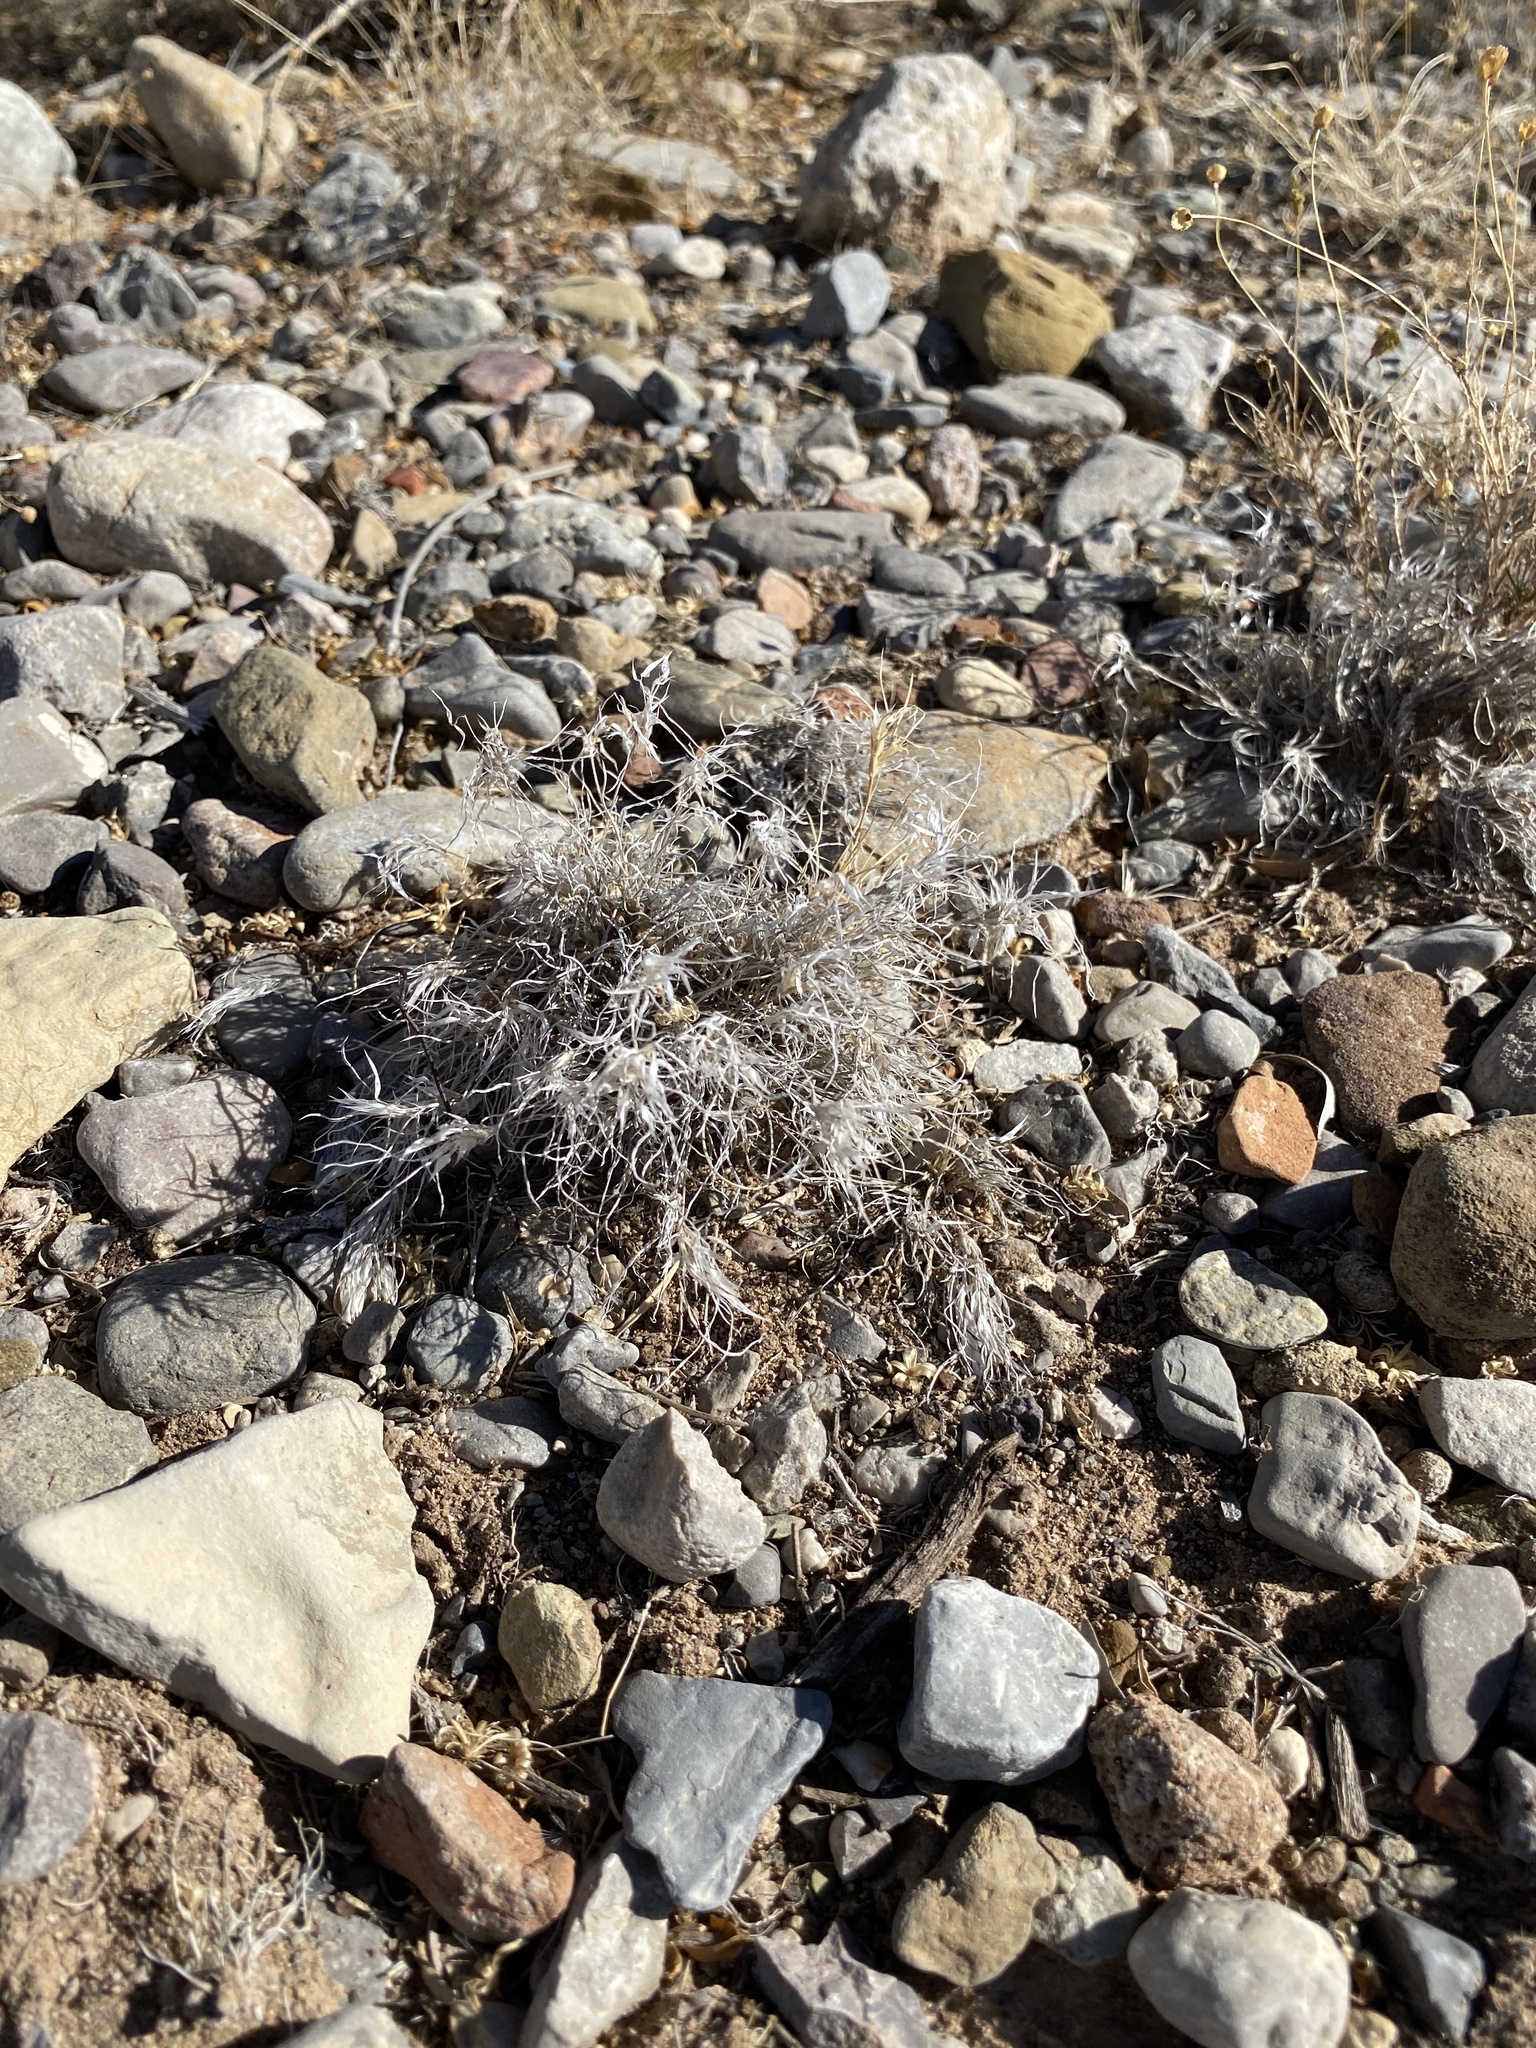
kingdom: Plantae
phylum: Tracheophyta
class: Liliopsida
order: Poales
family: Poaceae
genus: Dasyochloa
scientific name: Dasyochloa pulchella
